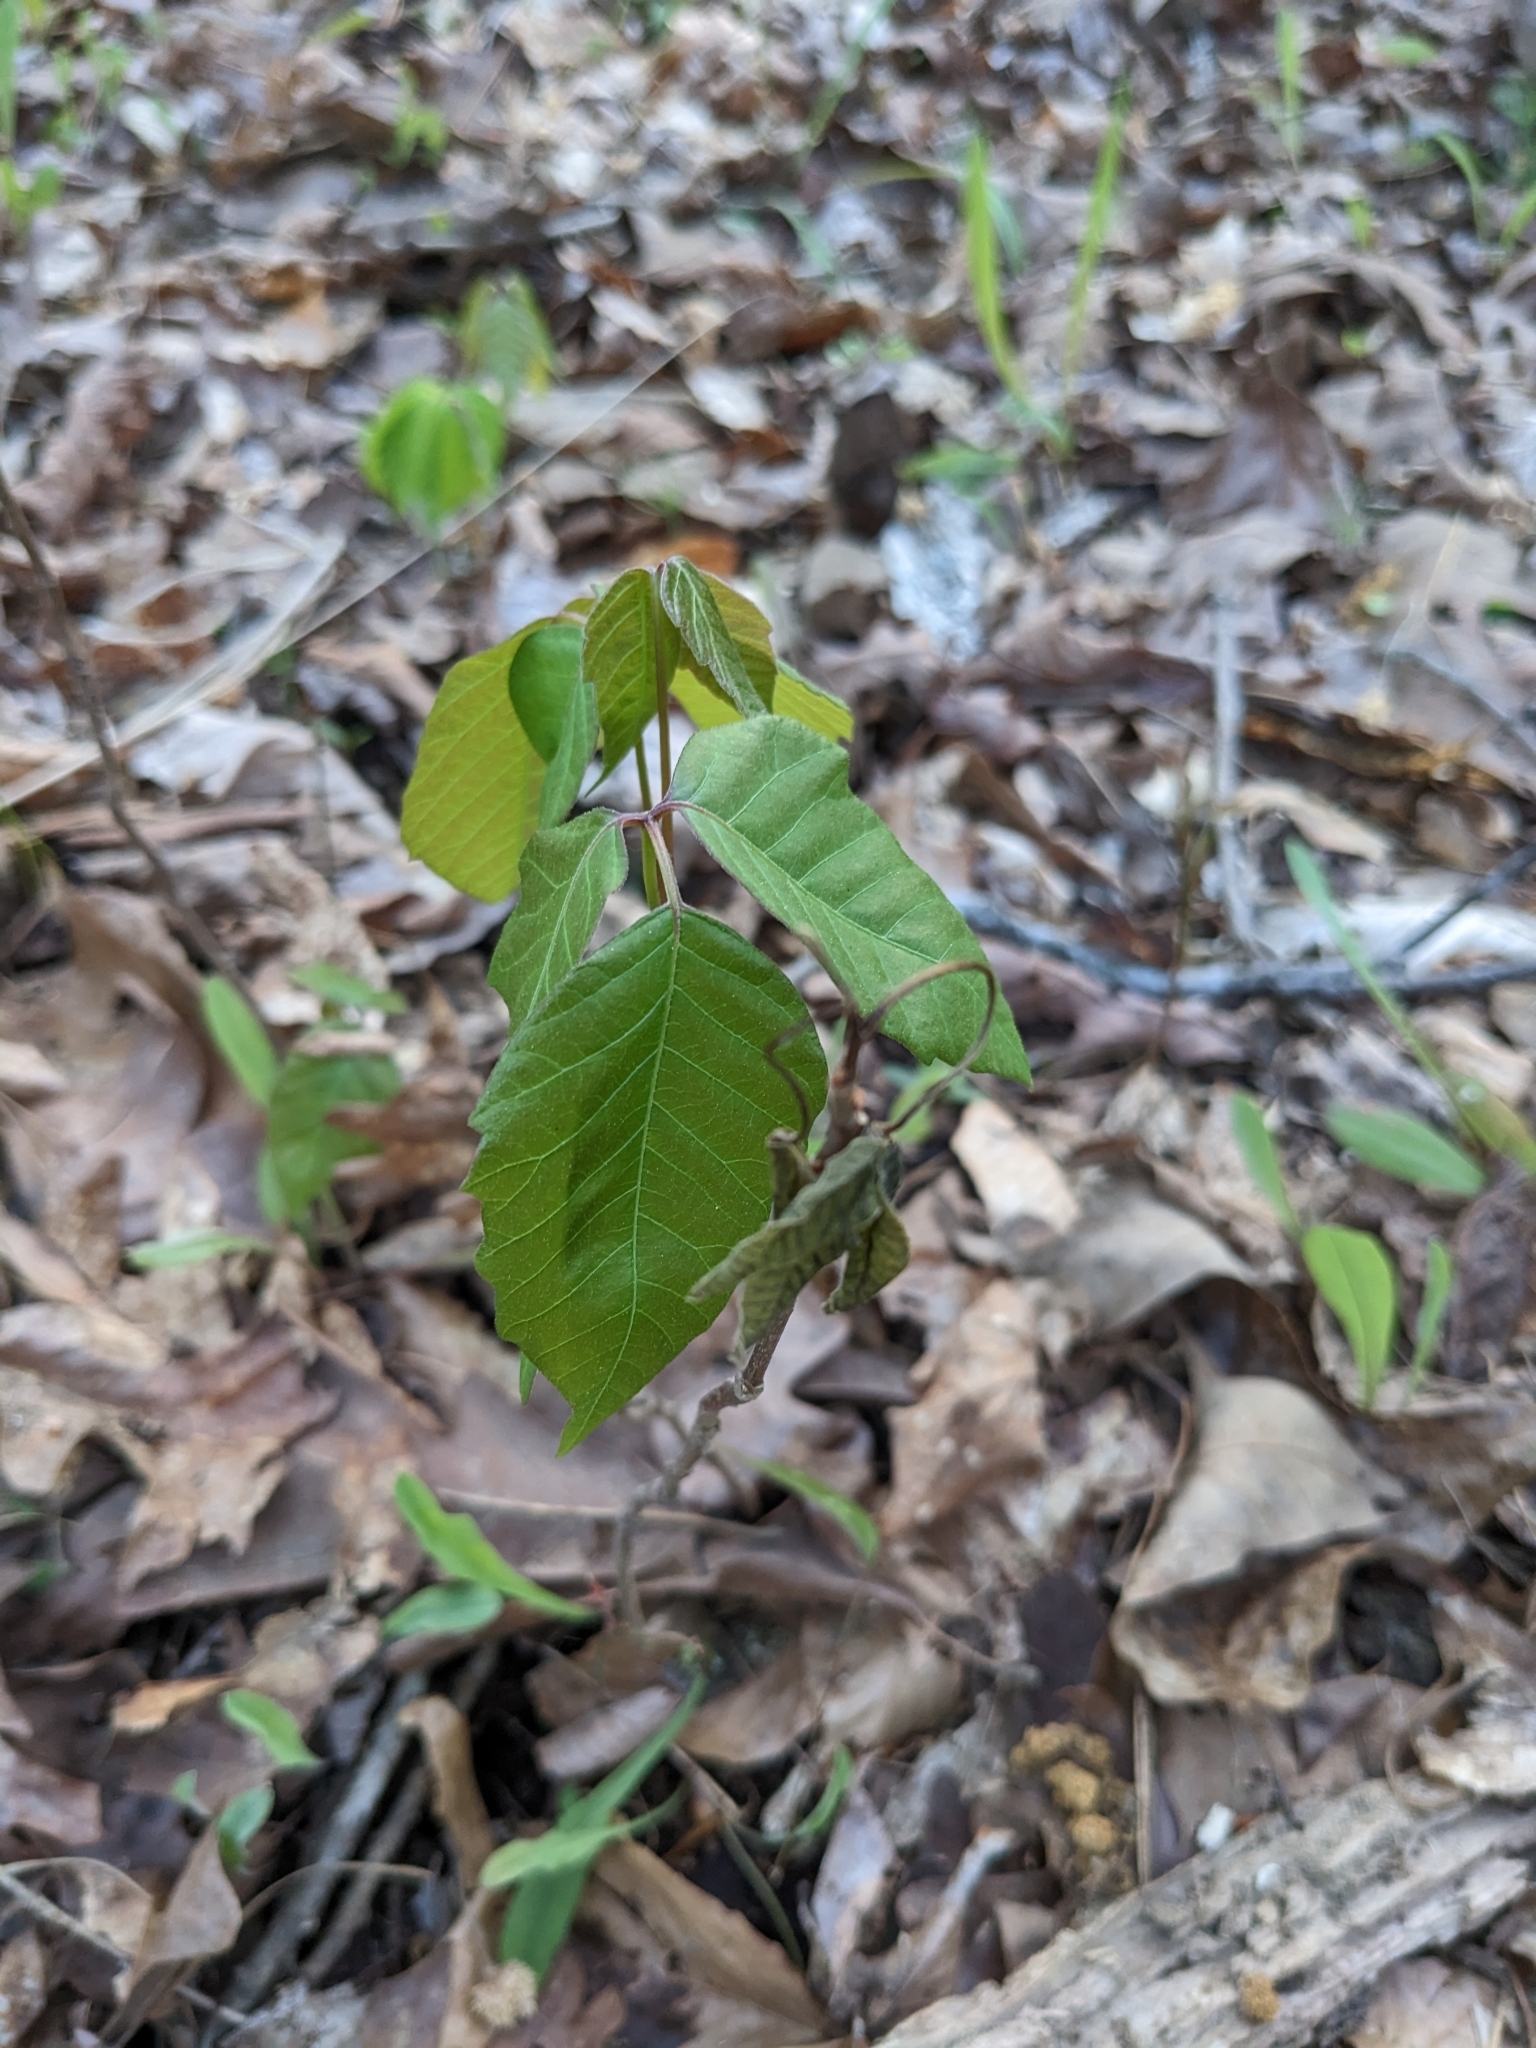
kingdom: Plantae
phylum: Tracheophyta
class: Magnoliopsida
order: Sapindales
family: Anacardiaceae
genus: Toxicodendron
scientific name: Toxicodendron radicans
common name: Poison ivy
